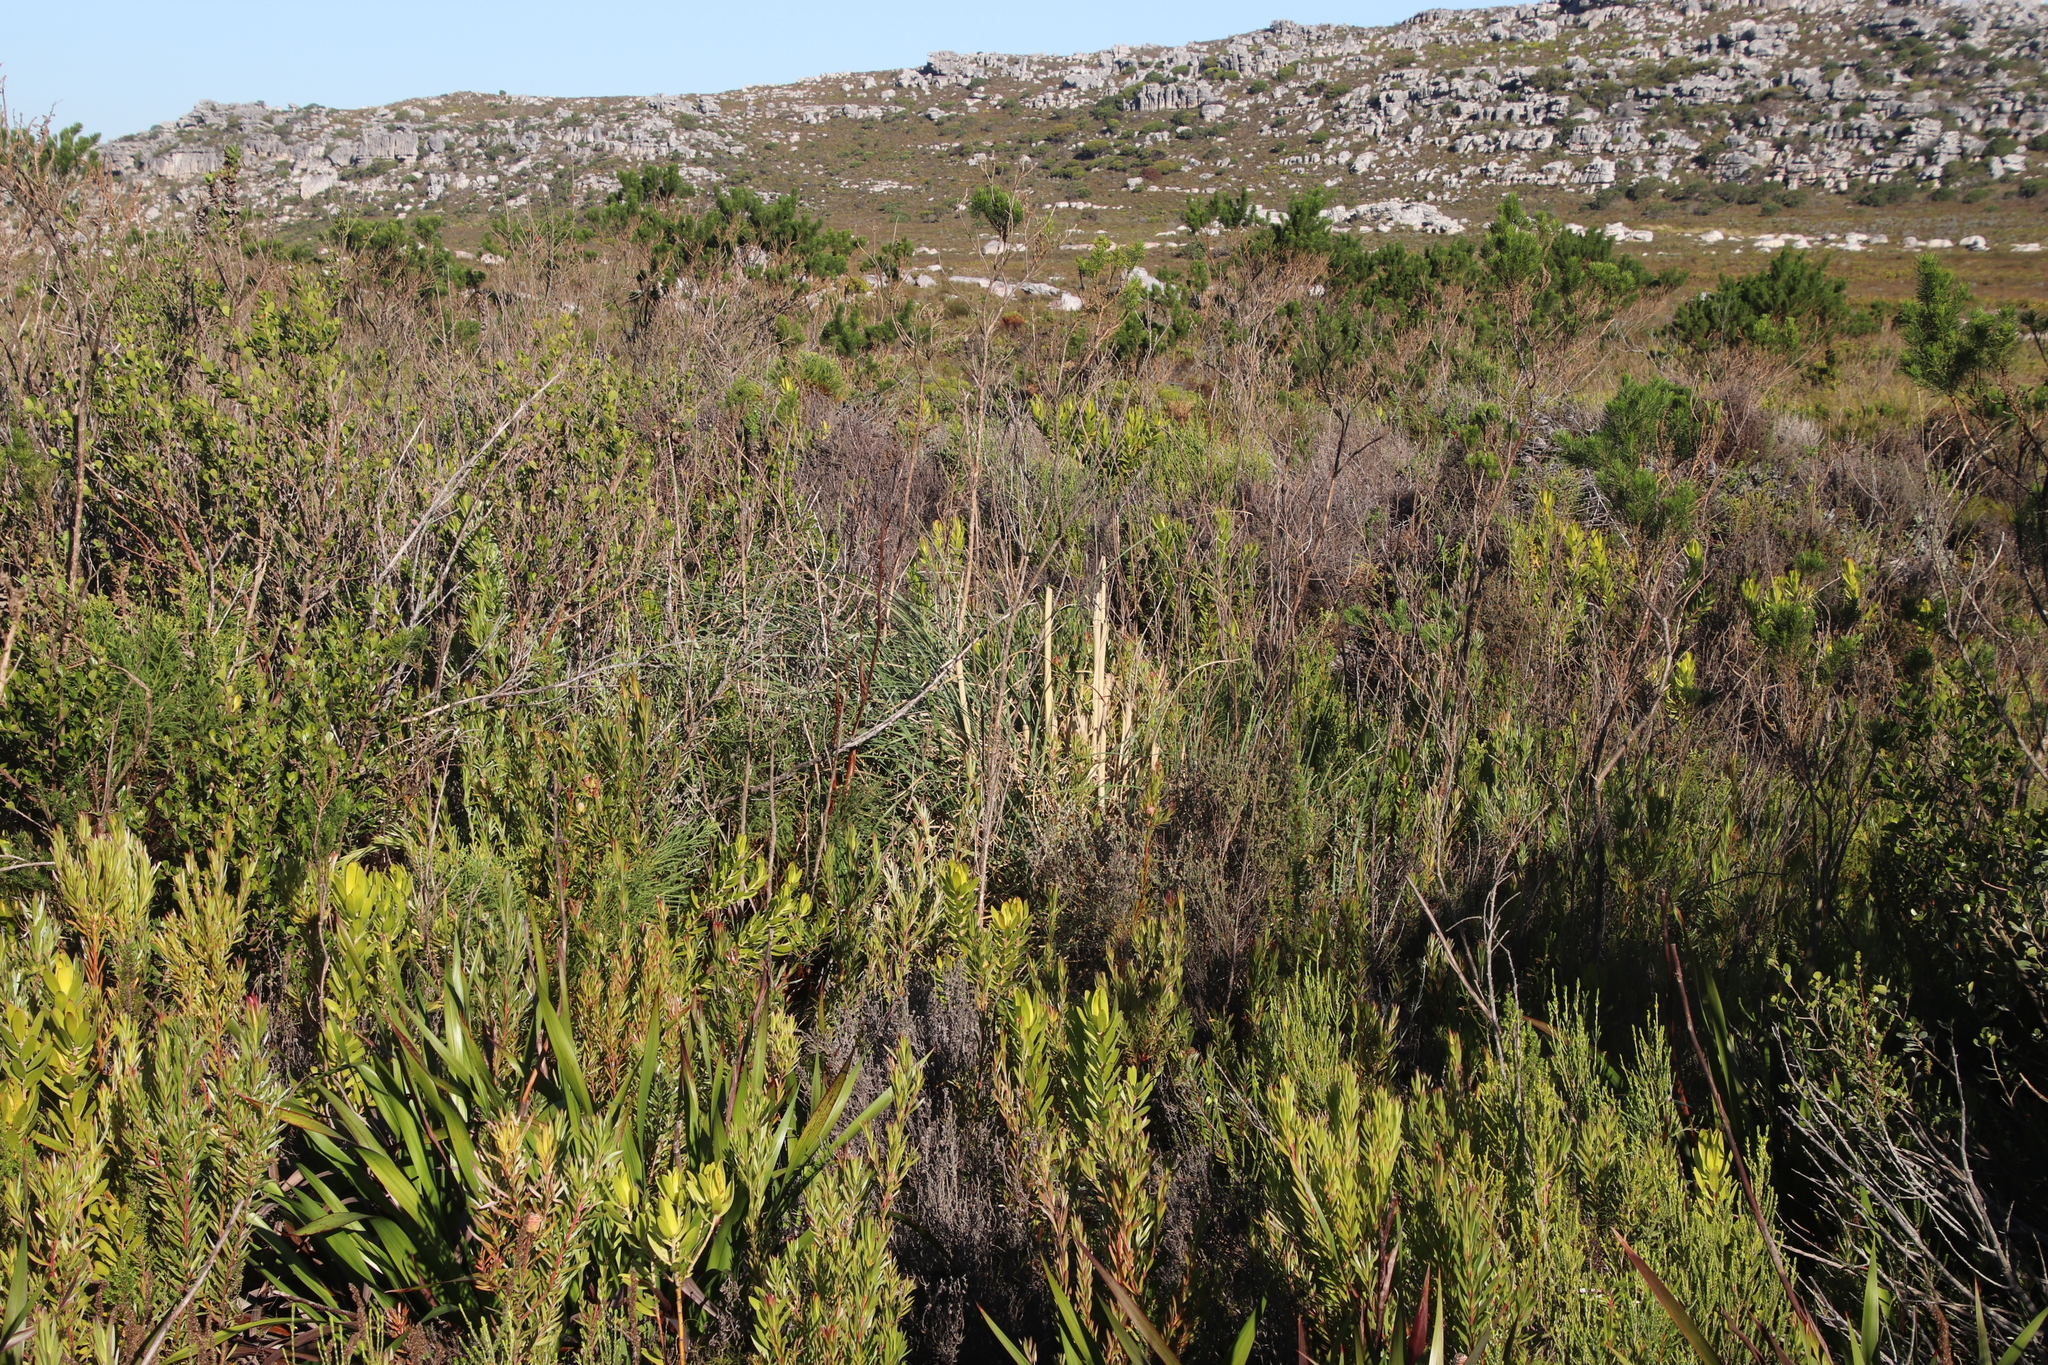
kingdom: Plantae
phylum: Tracheophyta
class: Liliopsida
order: Poales
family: Poaceae
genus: Cortaderia
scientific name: Cortaderia selloana
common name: Uruguayan pampas grass
